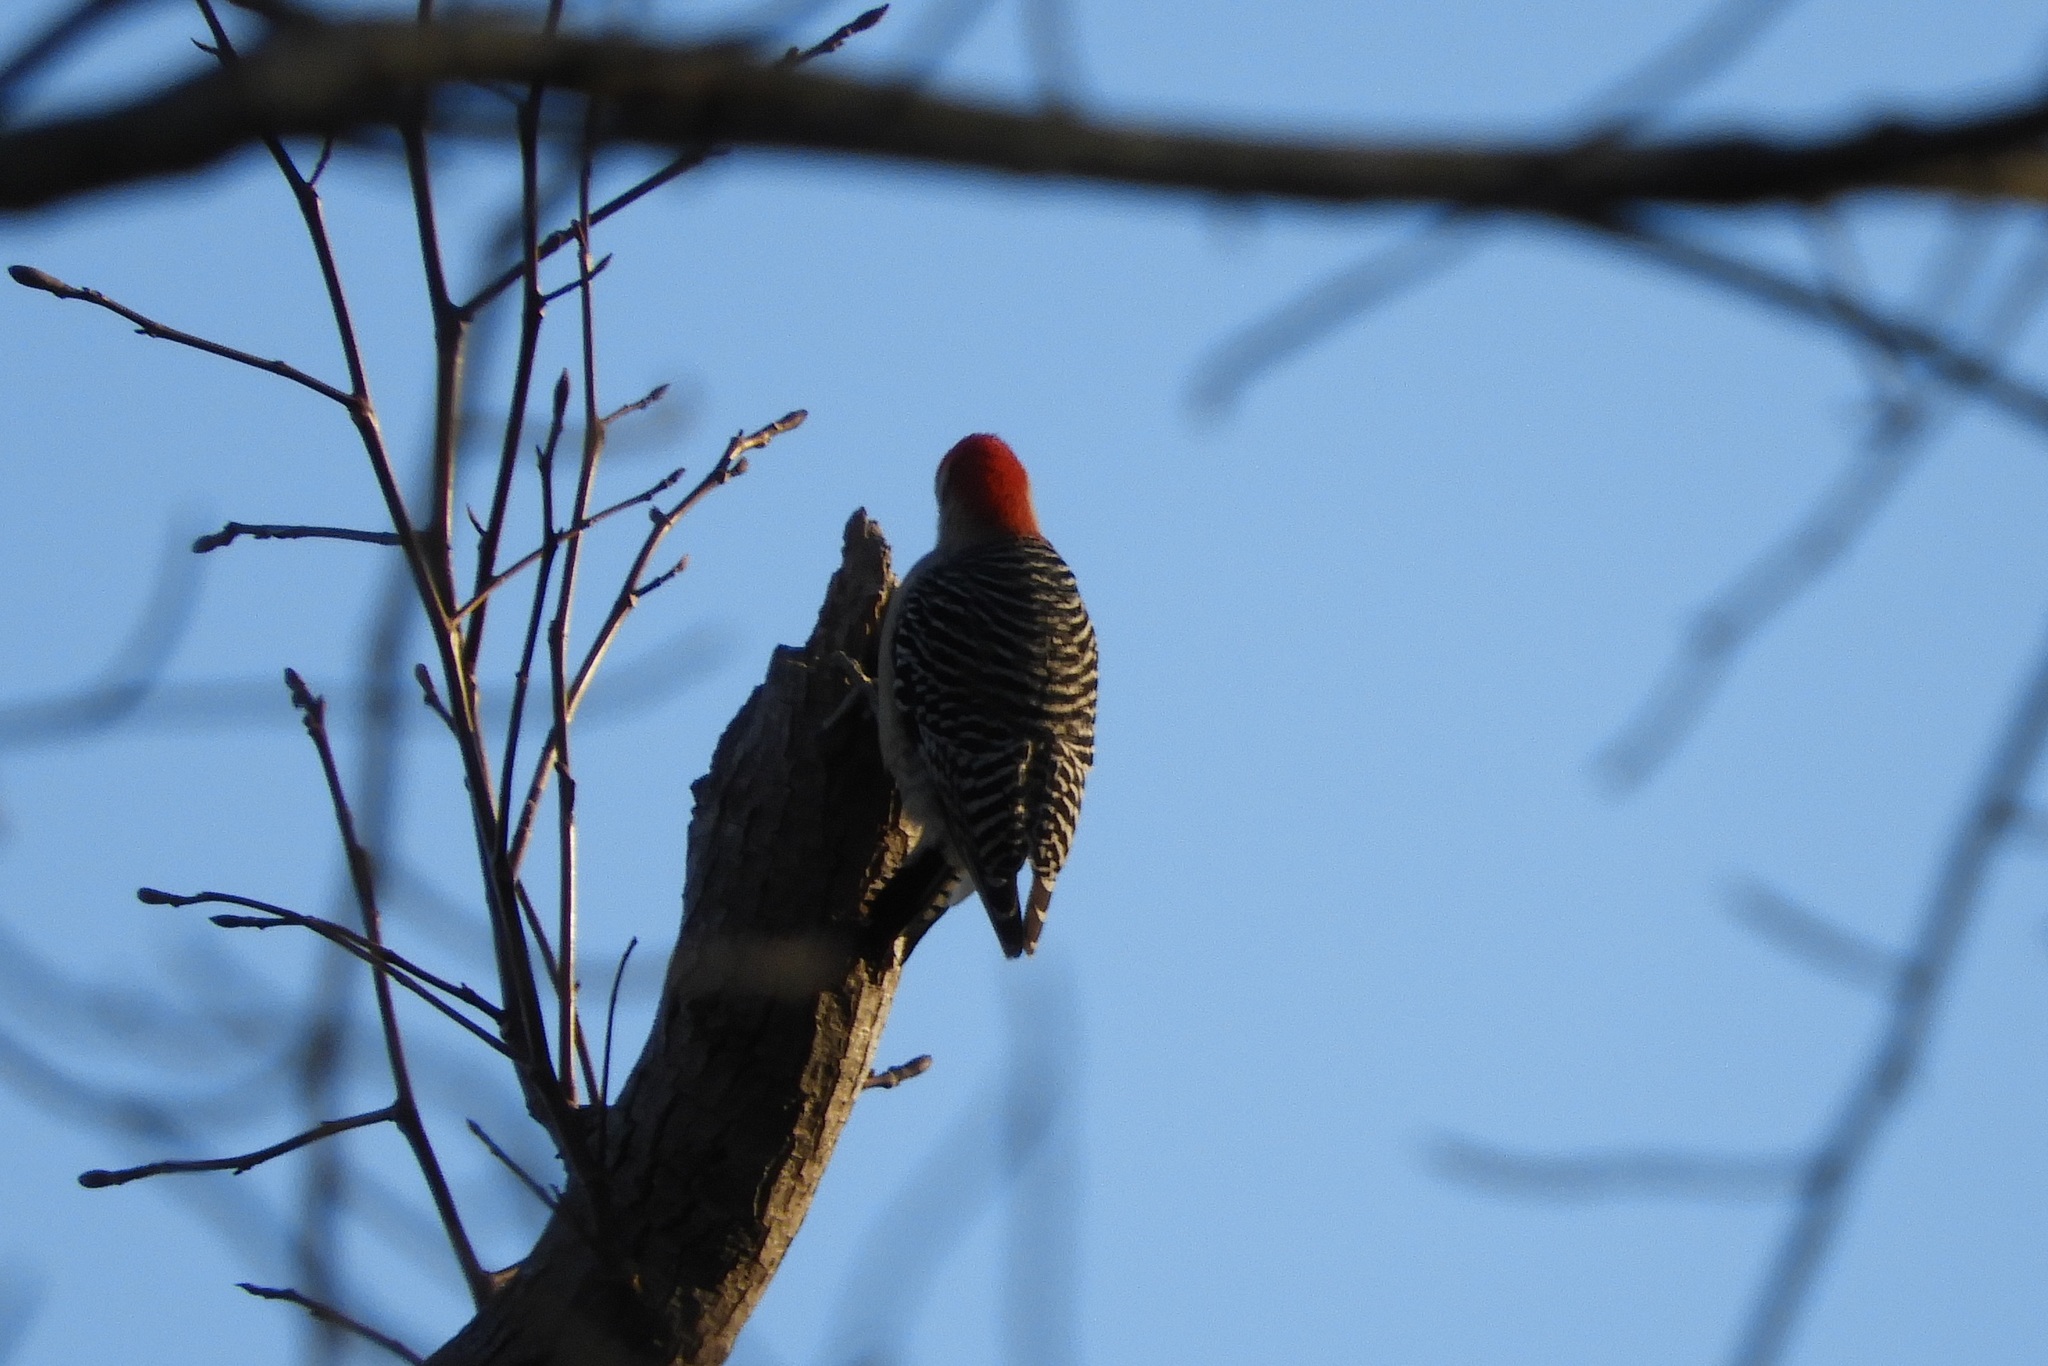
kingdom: Animalia
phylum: Chordata
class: Aves
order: Piciformes
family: Picidae
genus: Melanerpes
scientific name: Melanerpes carolinus
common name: Red-bellied woodpecker
